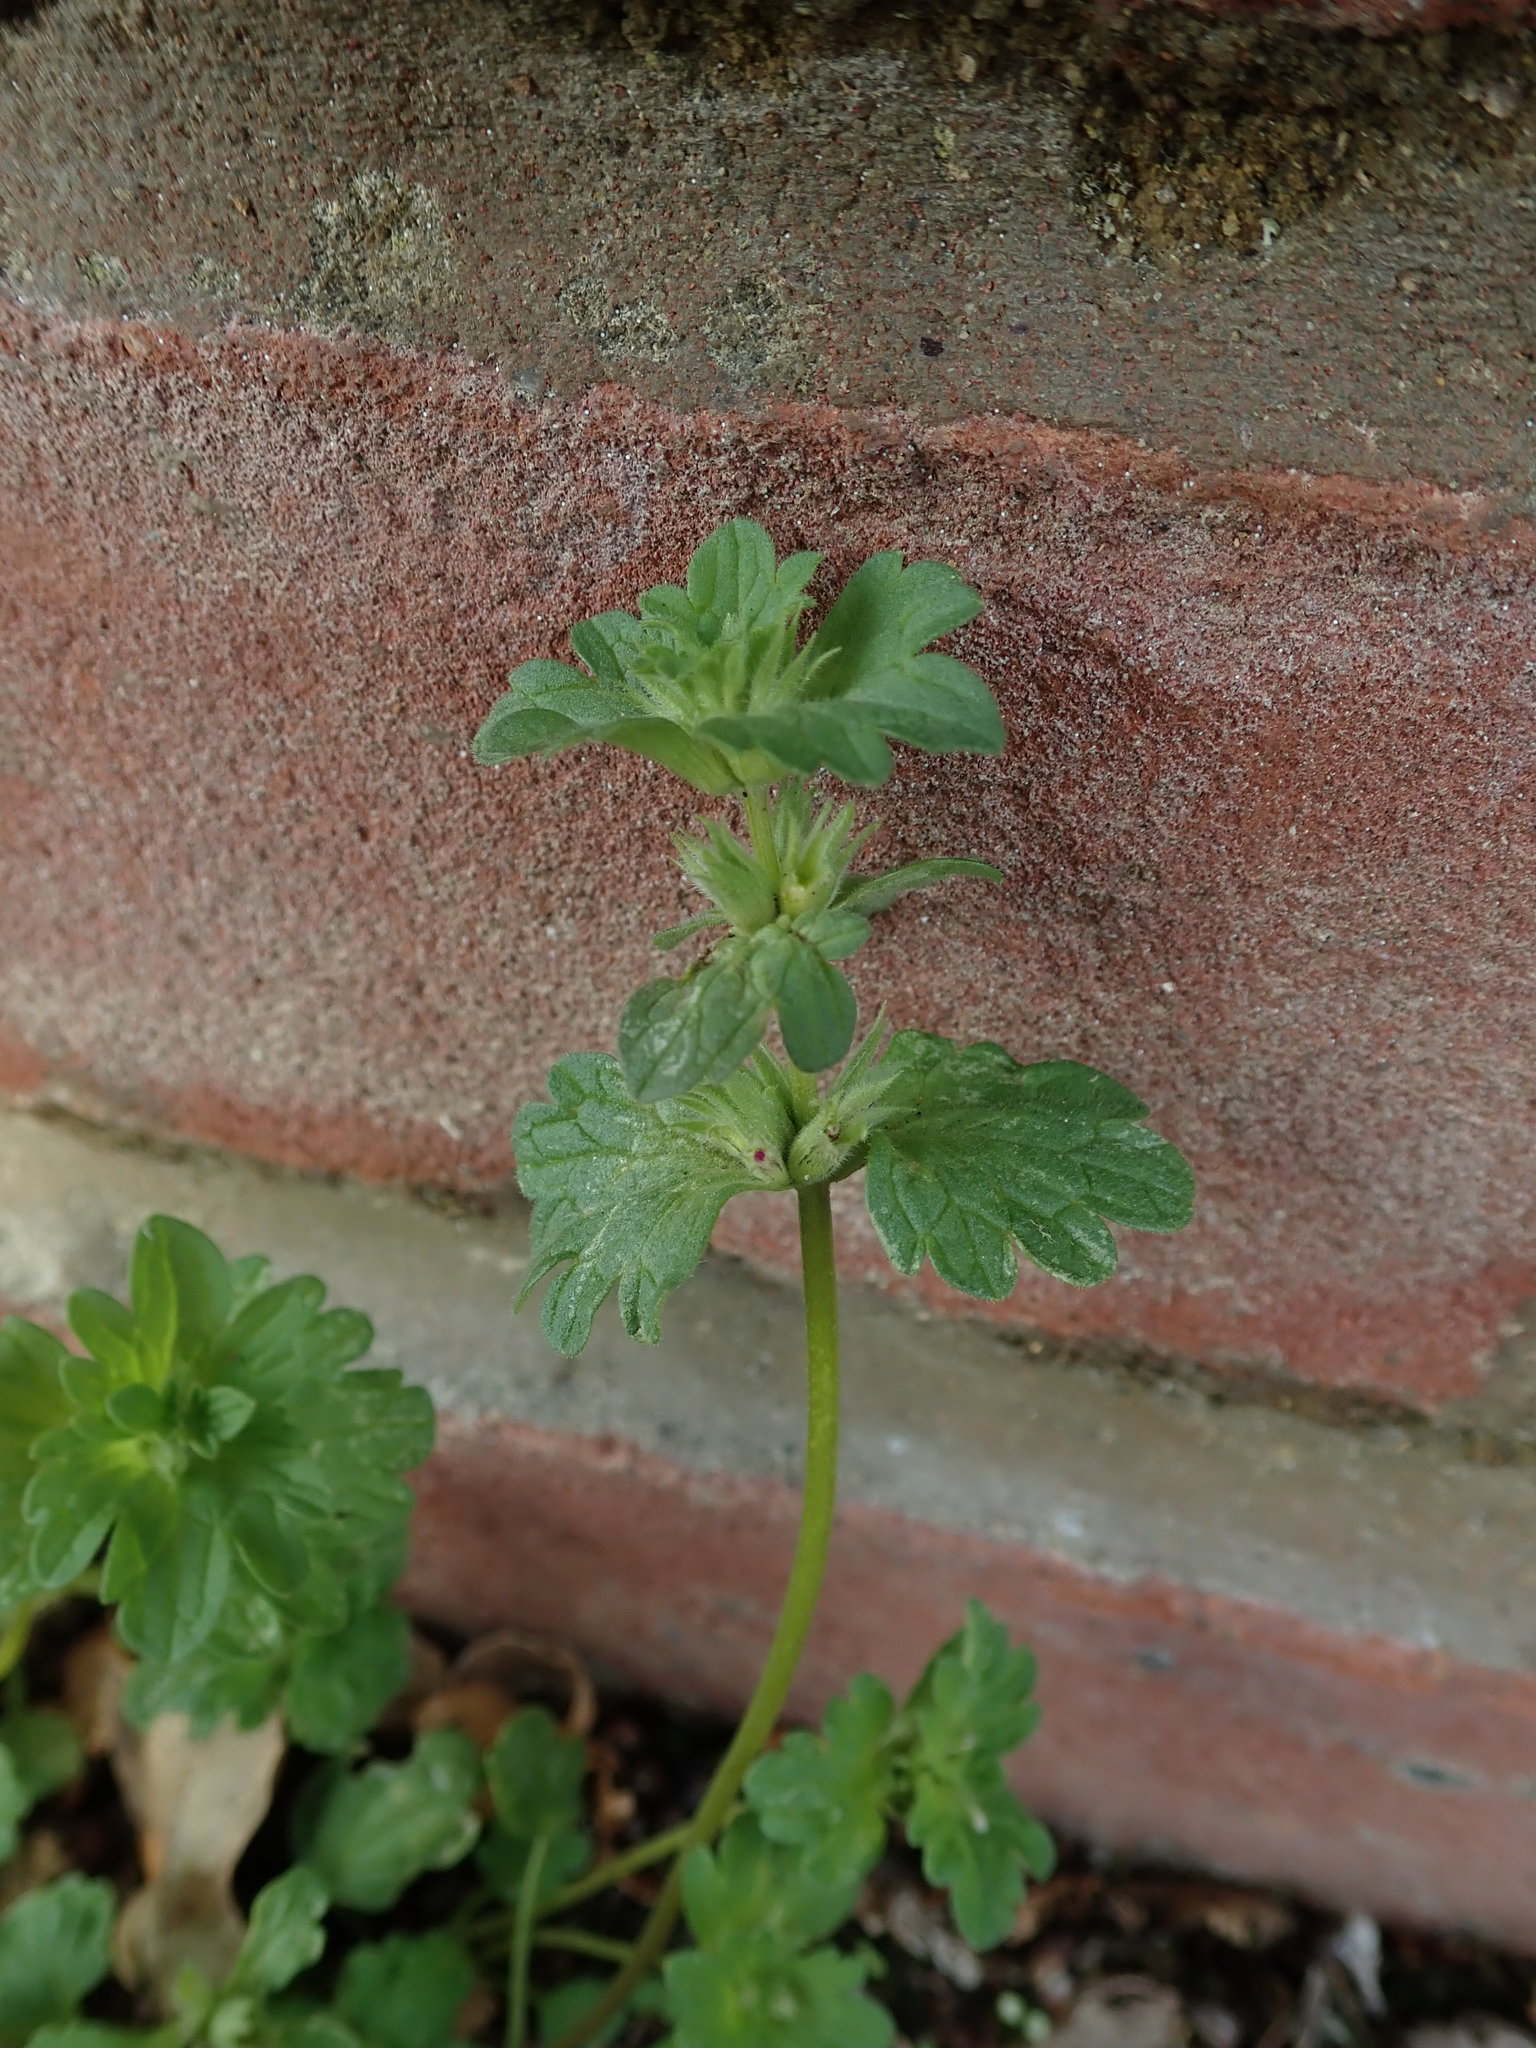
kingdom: Plantae
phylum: Tracheophyta
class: Magnoliopsida
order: Lamiales
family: Lamiaceae
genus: Lamium
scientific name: Lamium amplexicaule
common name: Henbit dead-nettle
